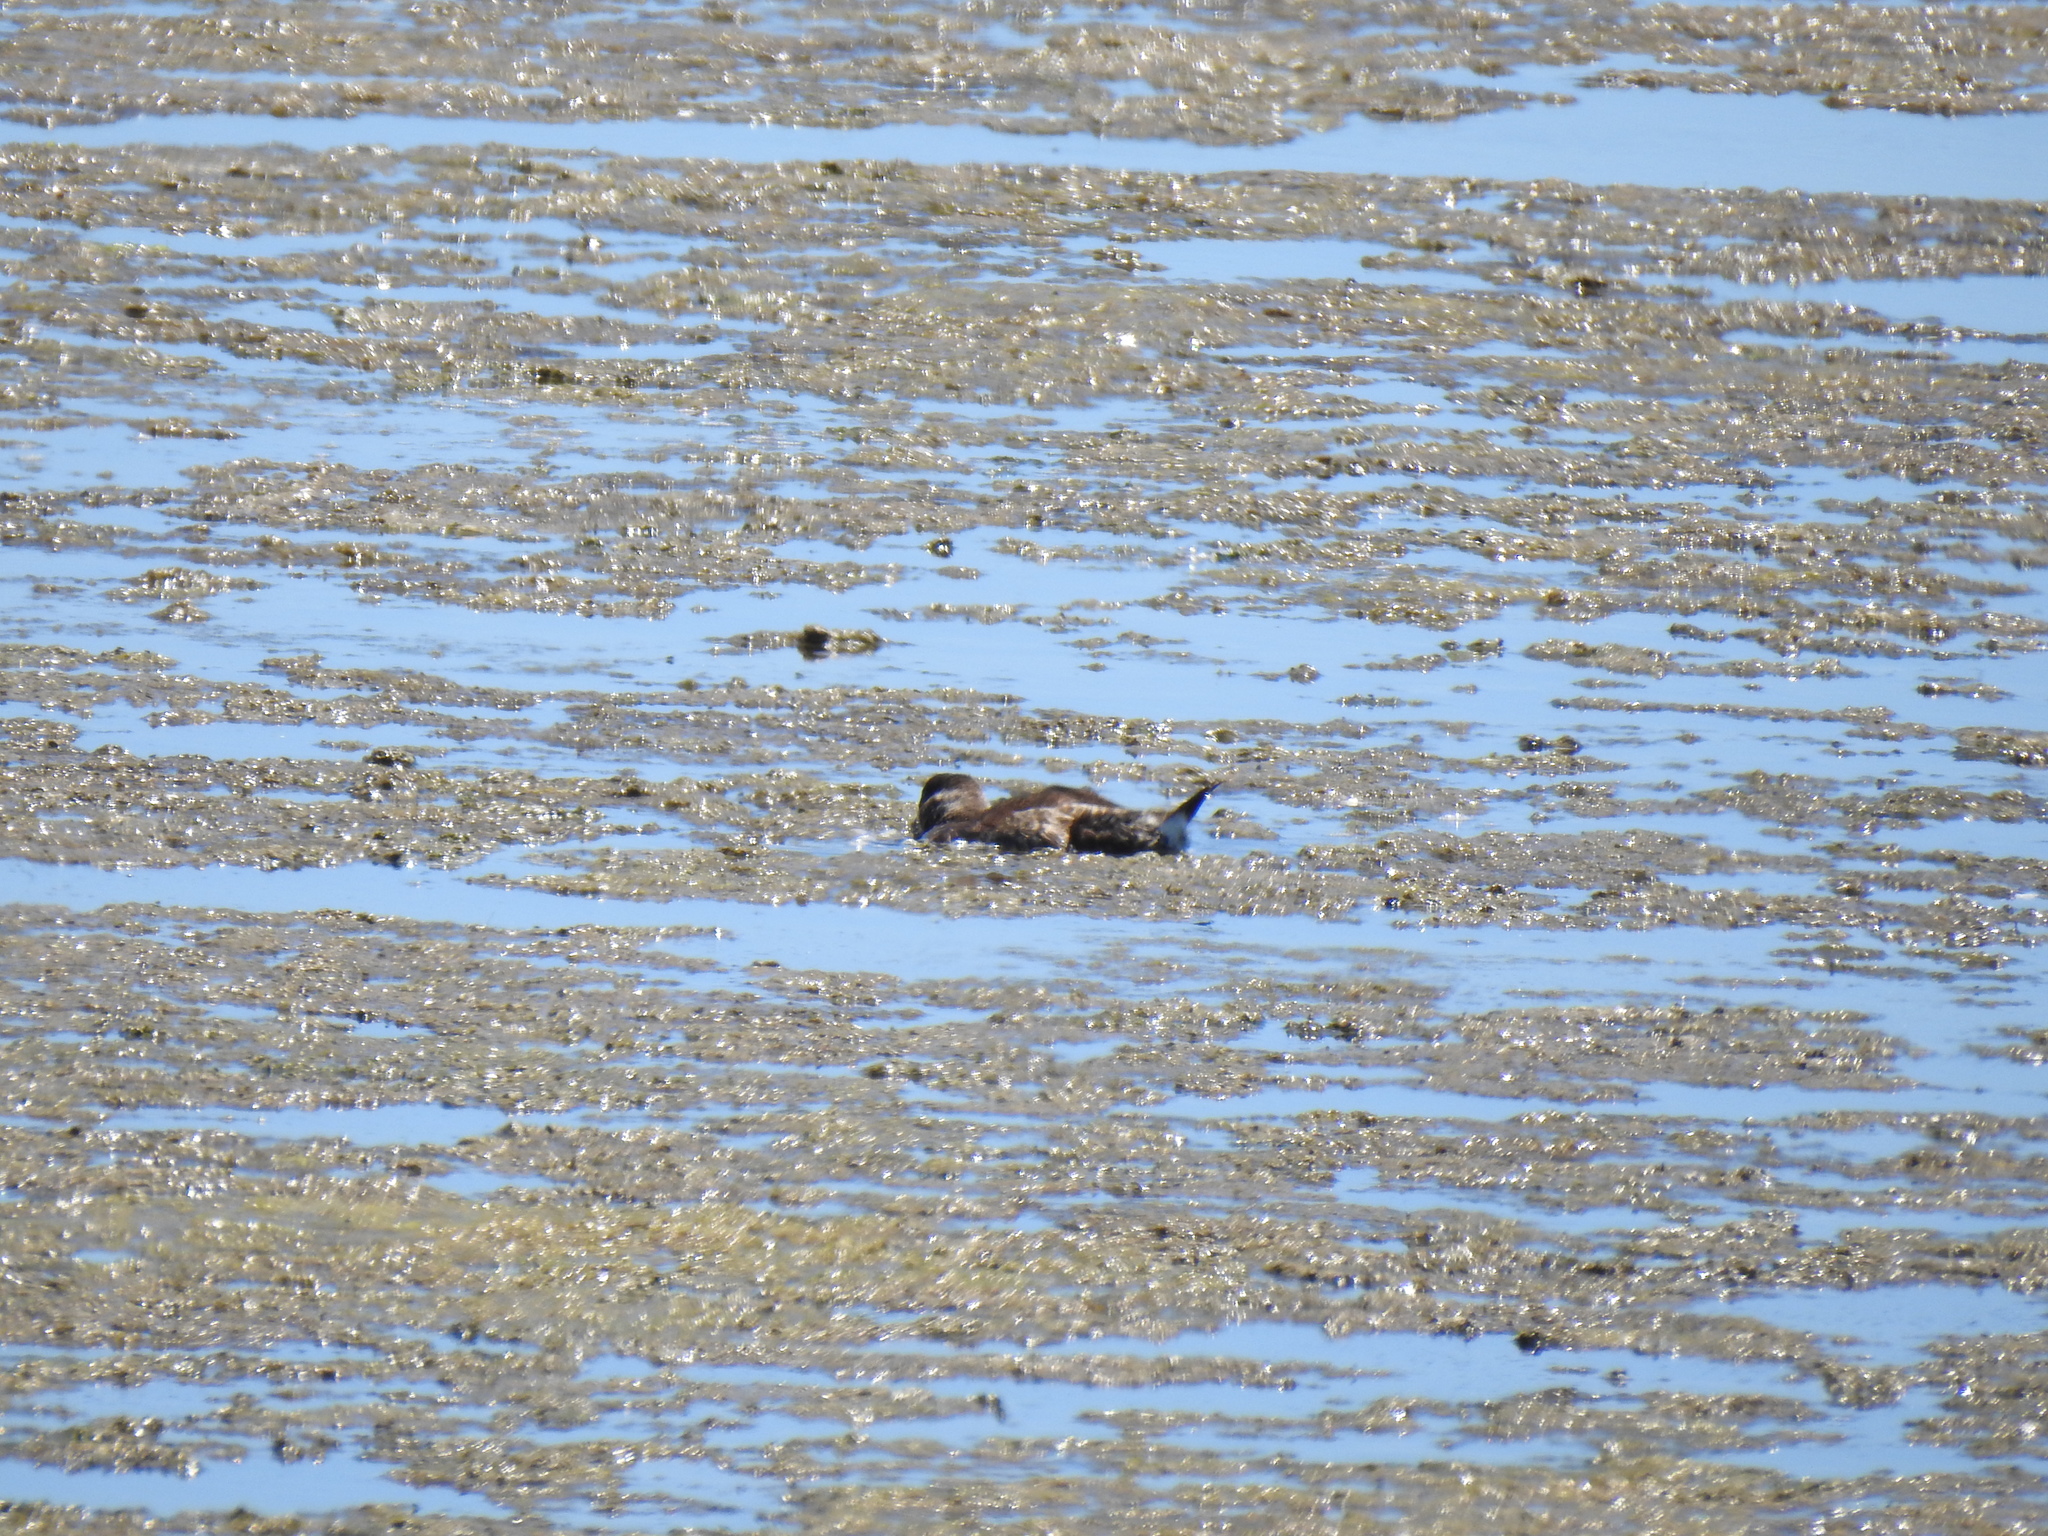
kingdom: Animalia
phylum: Chordata
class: Aves
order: Anseriformes
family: Anatidae
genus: Oxyura
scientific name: Oxyura jamaicensis
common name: Ruddy duck
